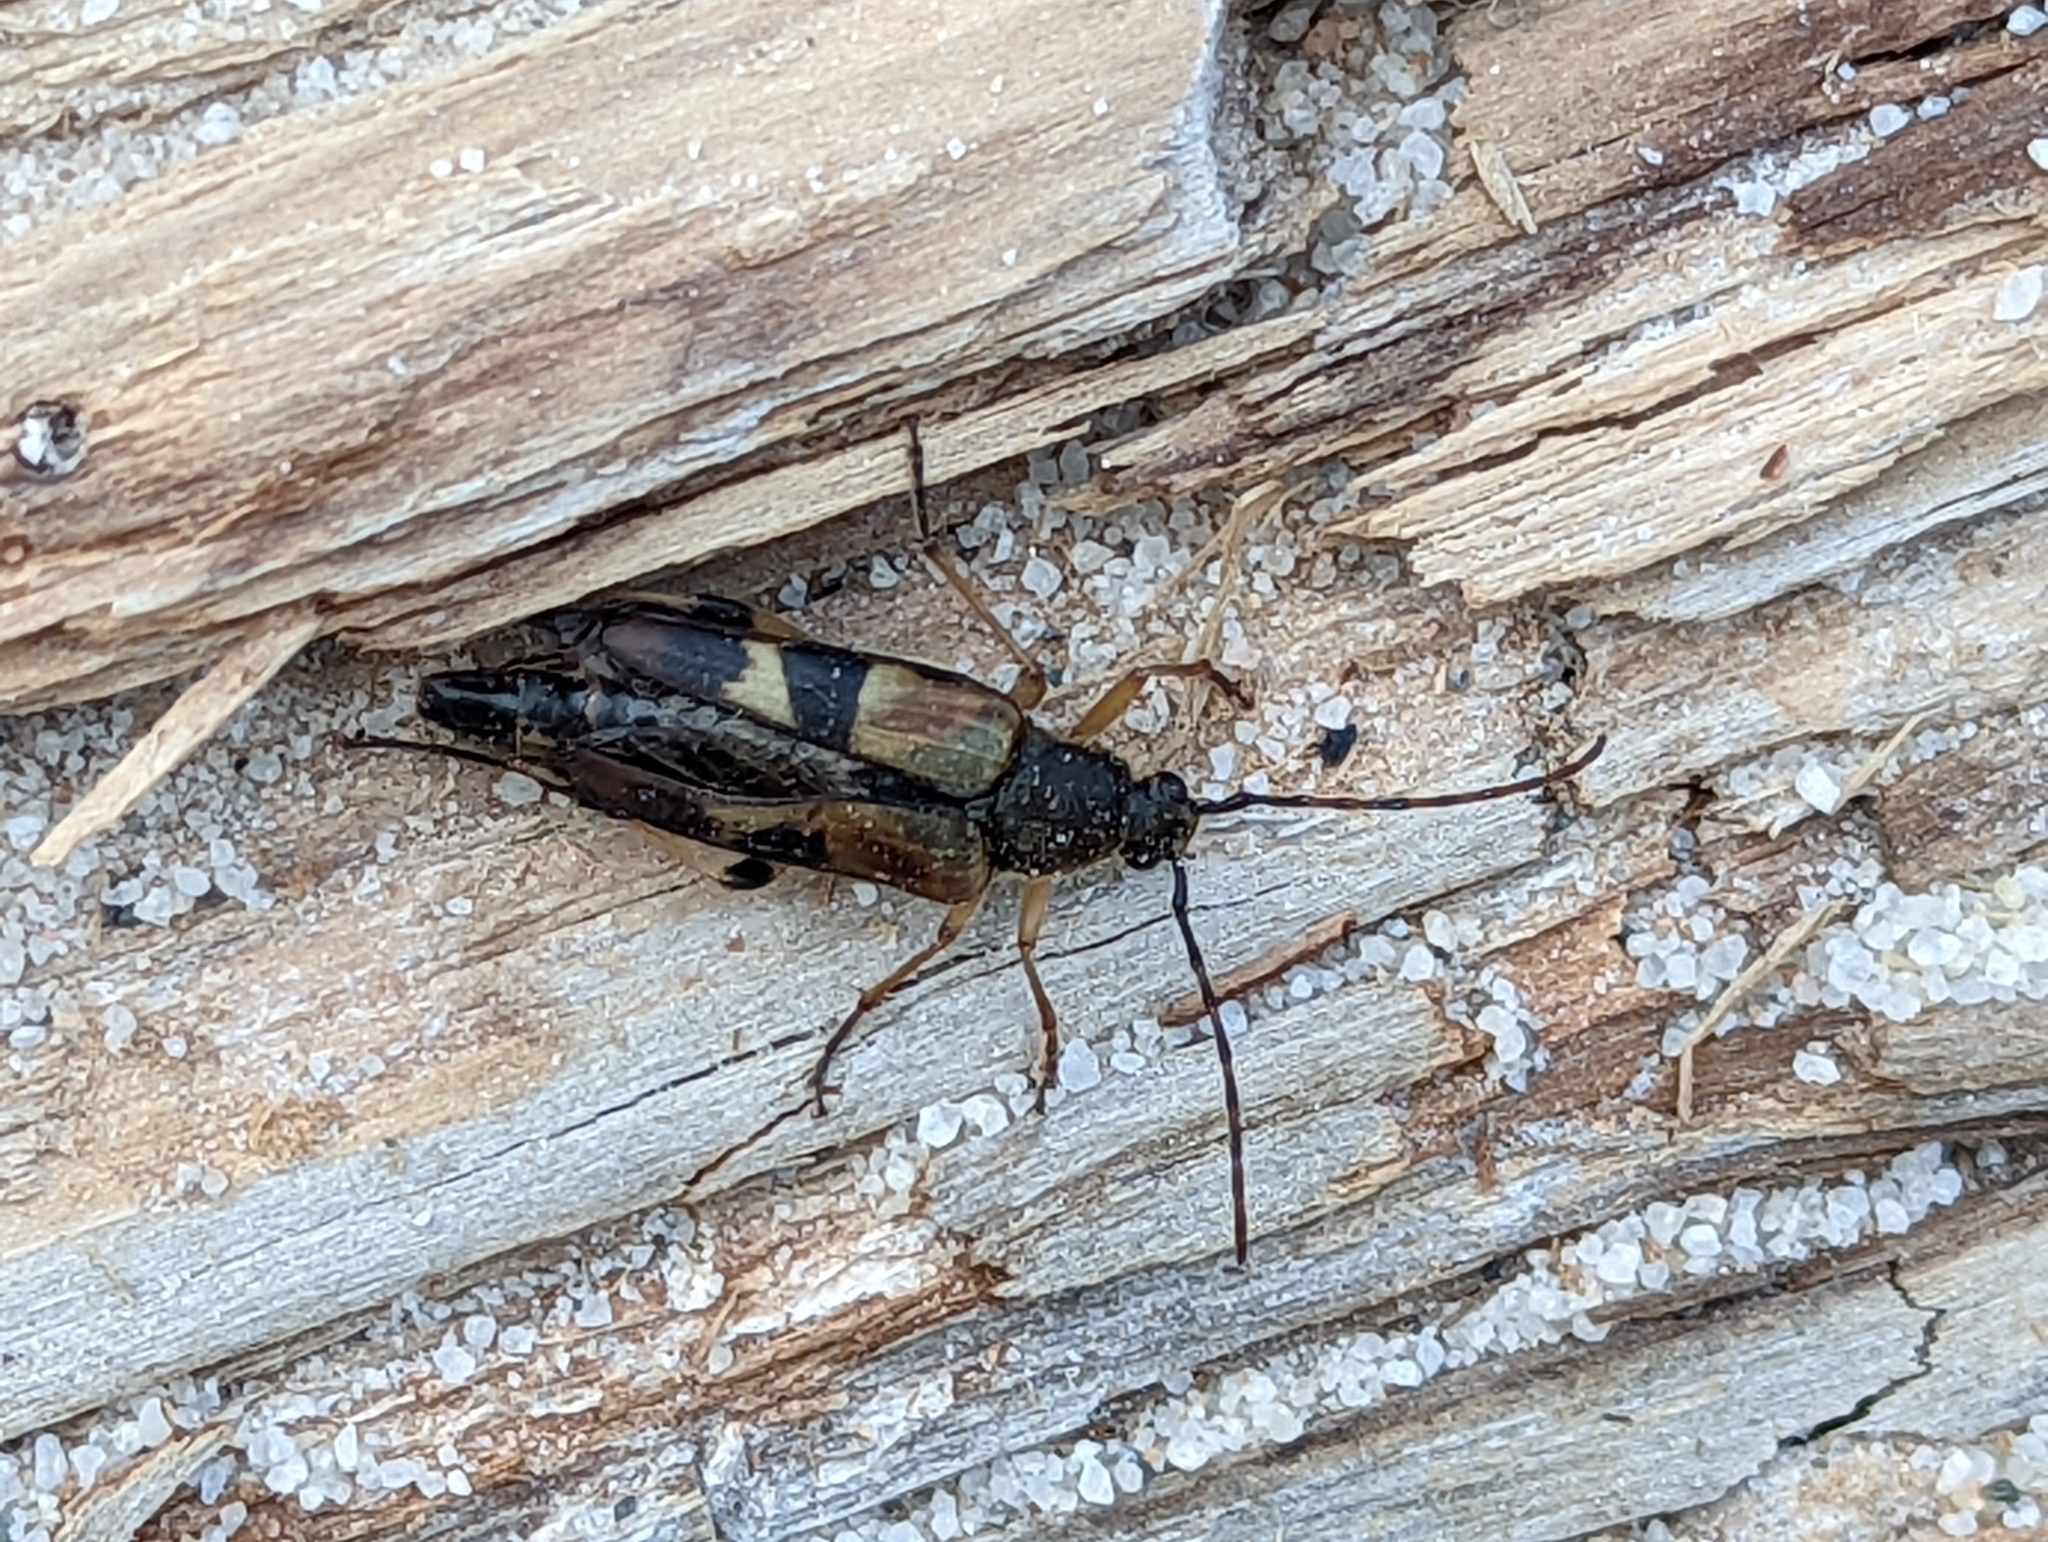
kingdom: Animalia
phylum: Arthropoda
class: Insecta
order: Coleoptera
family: Cerambycidae
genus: Etorofus
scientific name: Etorofus obliteratus
